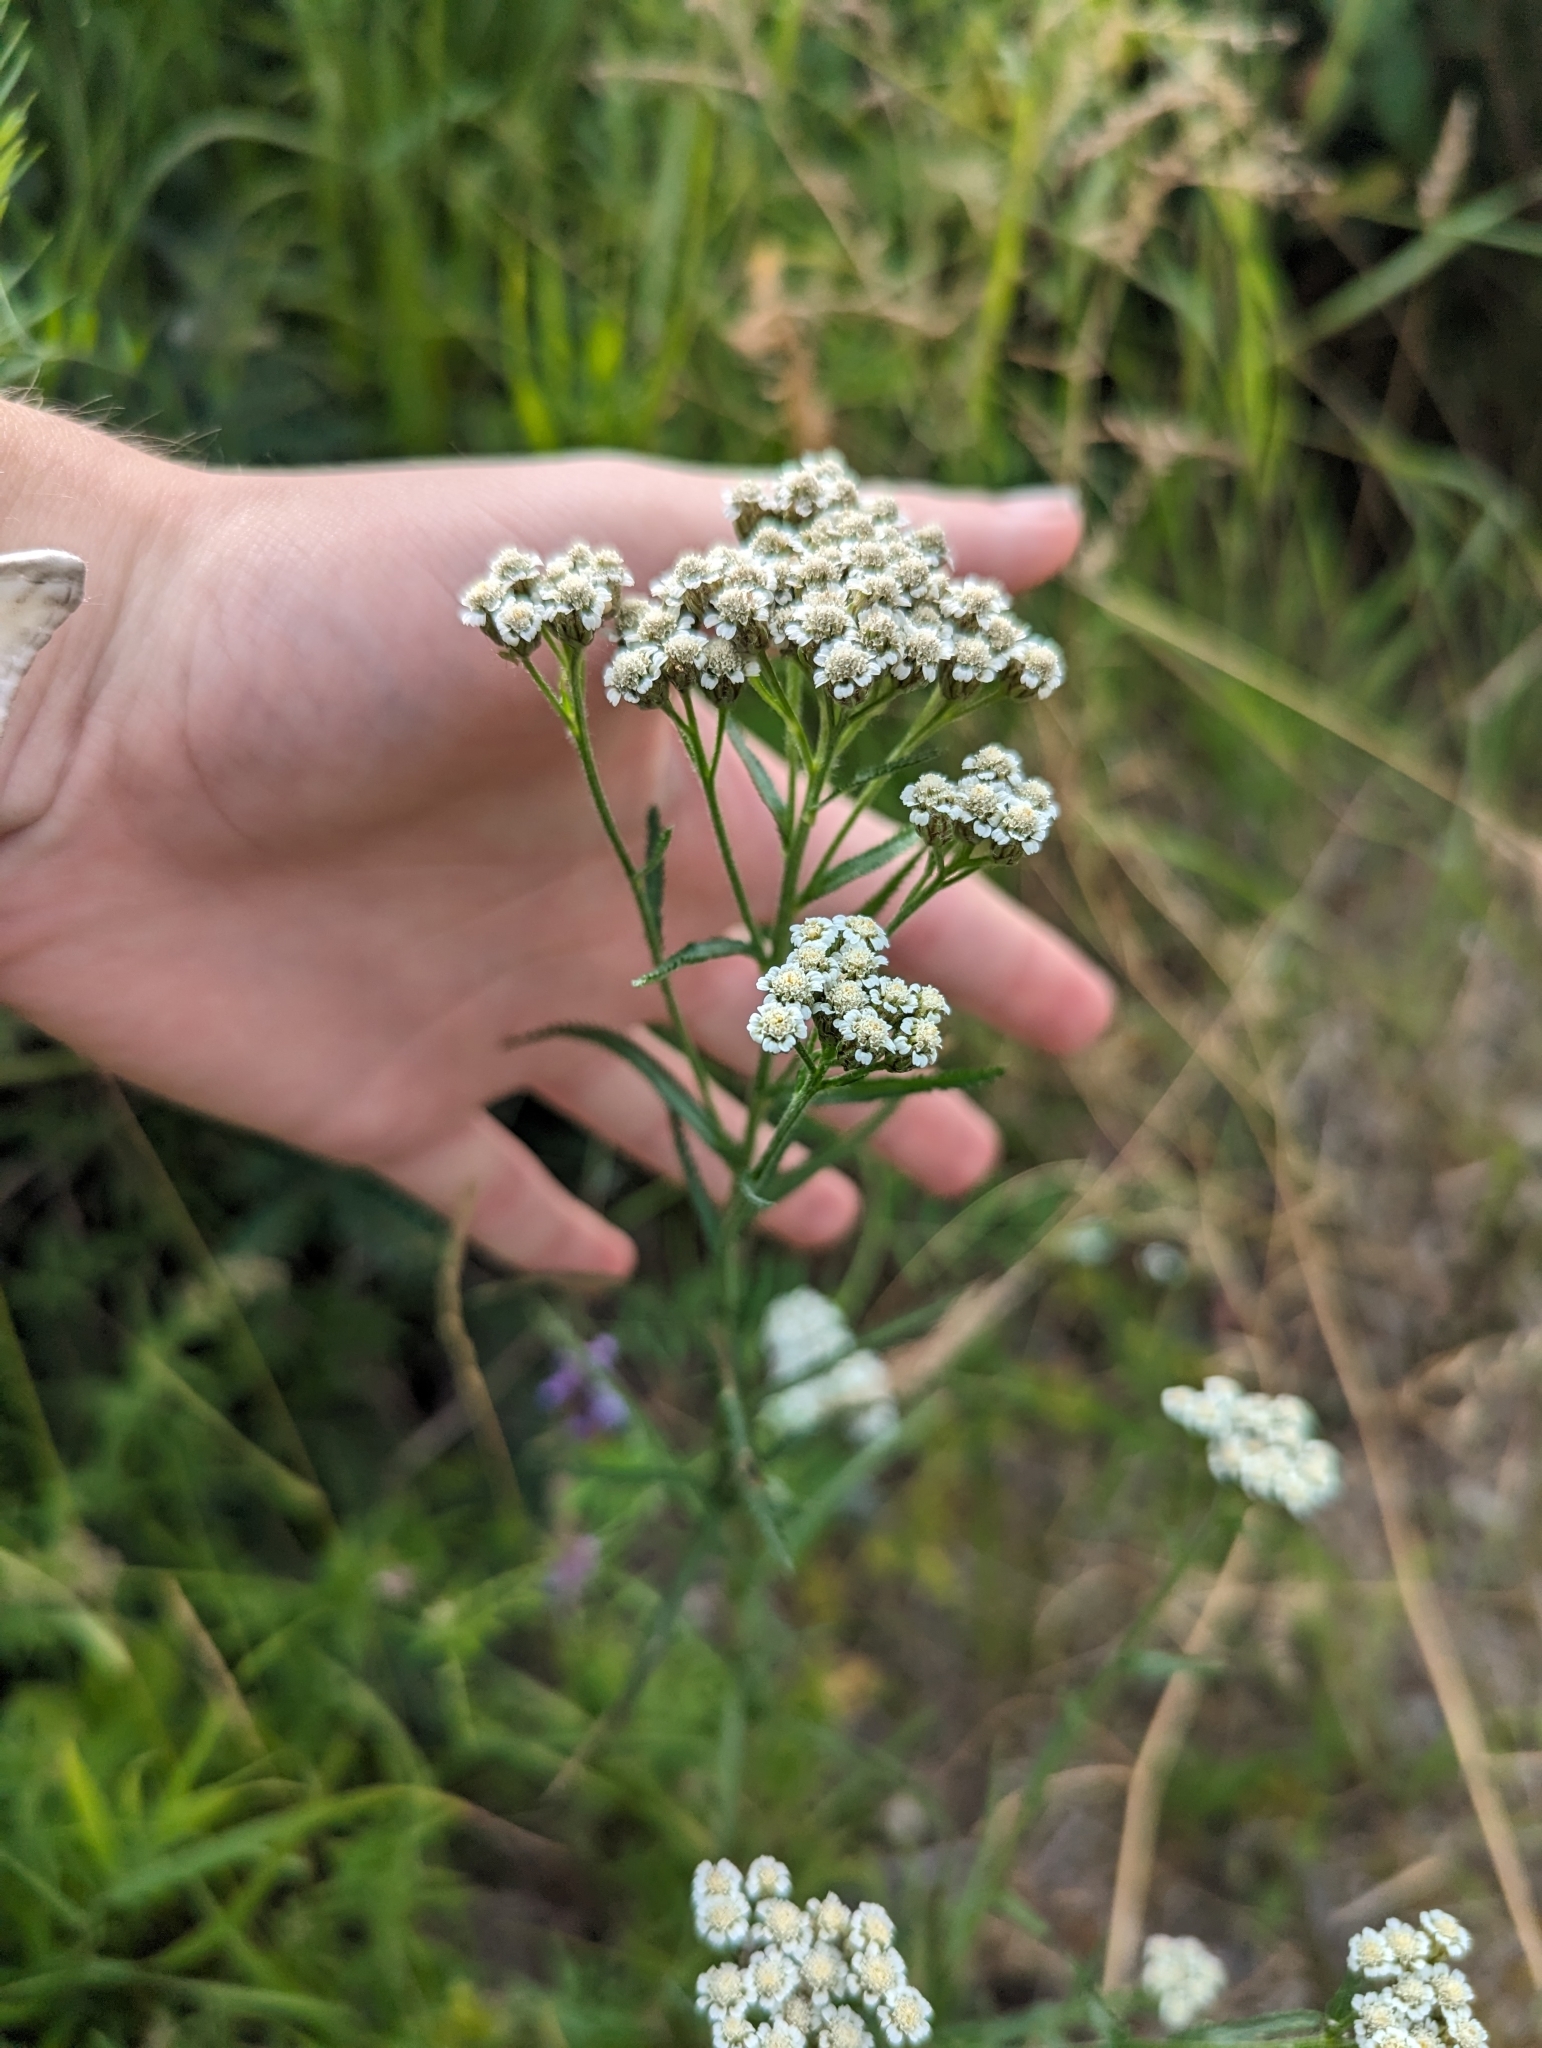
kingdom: Plantae
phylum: Tracheophyta
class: Magnoliopsida
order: Asterales
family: Asteraceae
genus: Achillea
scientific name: Achillea alpina
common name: Siberian yarrow
